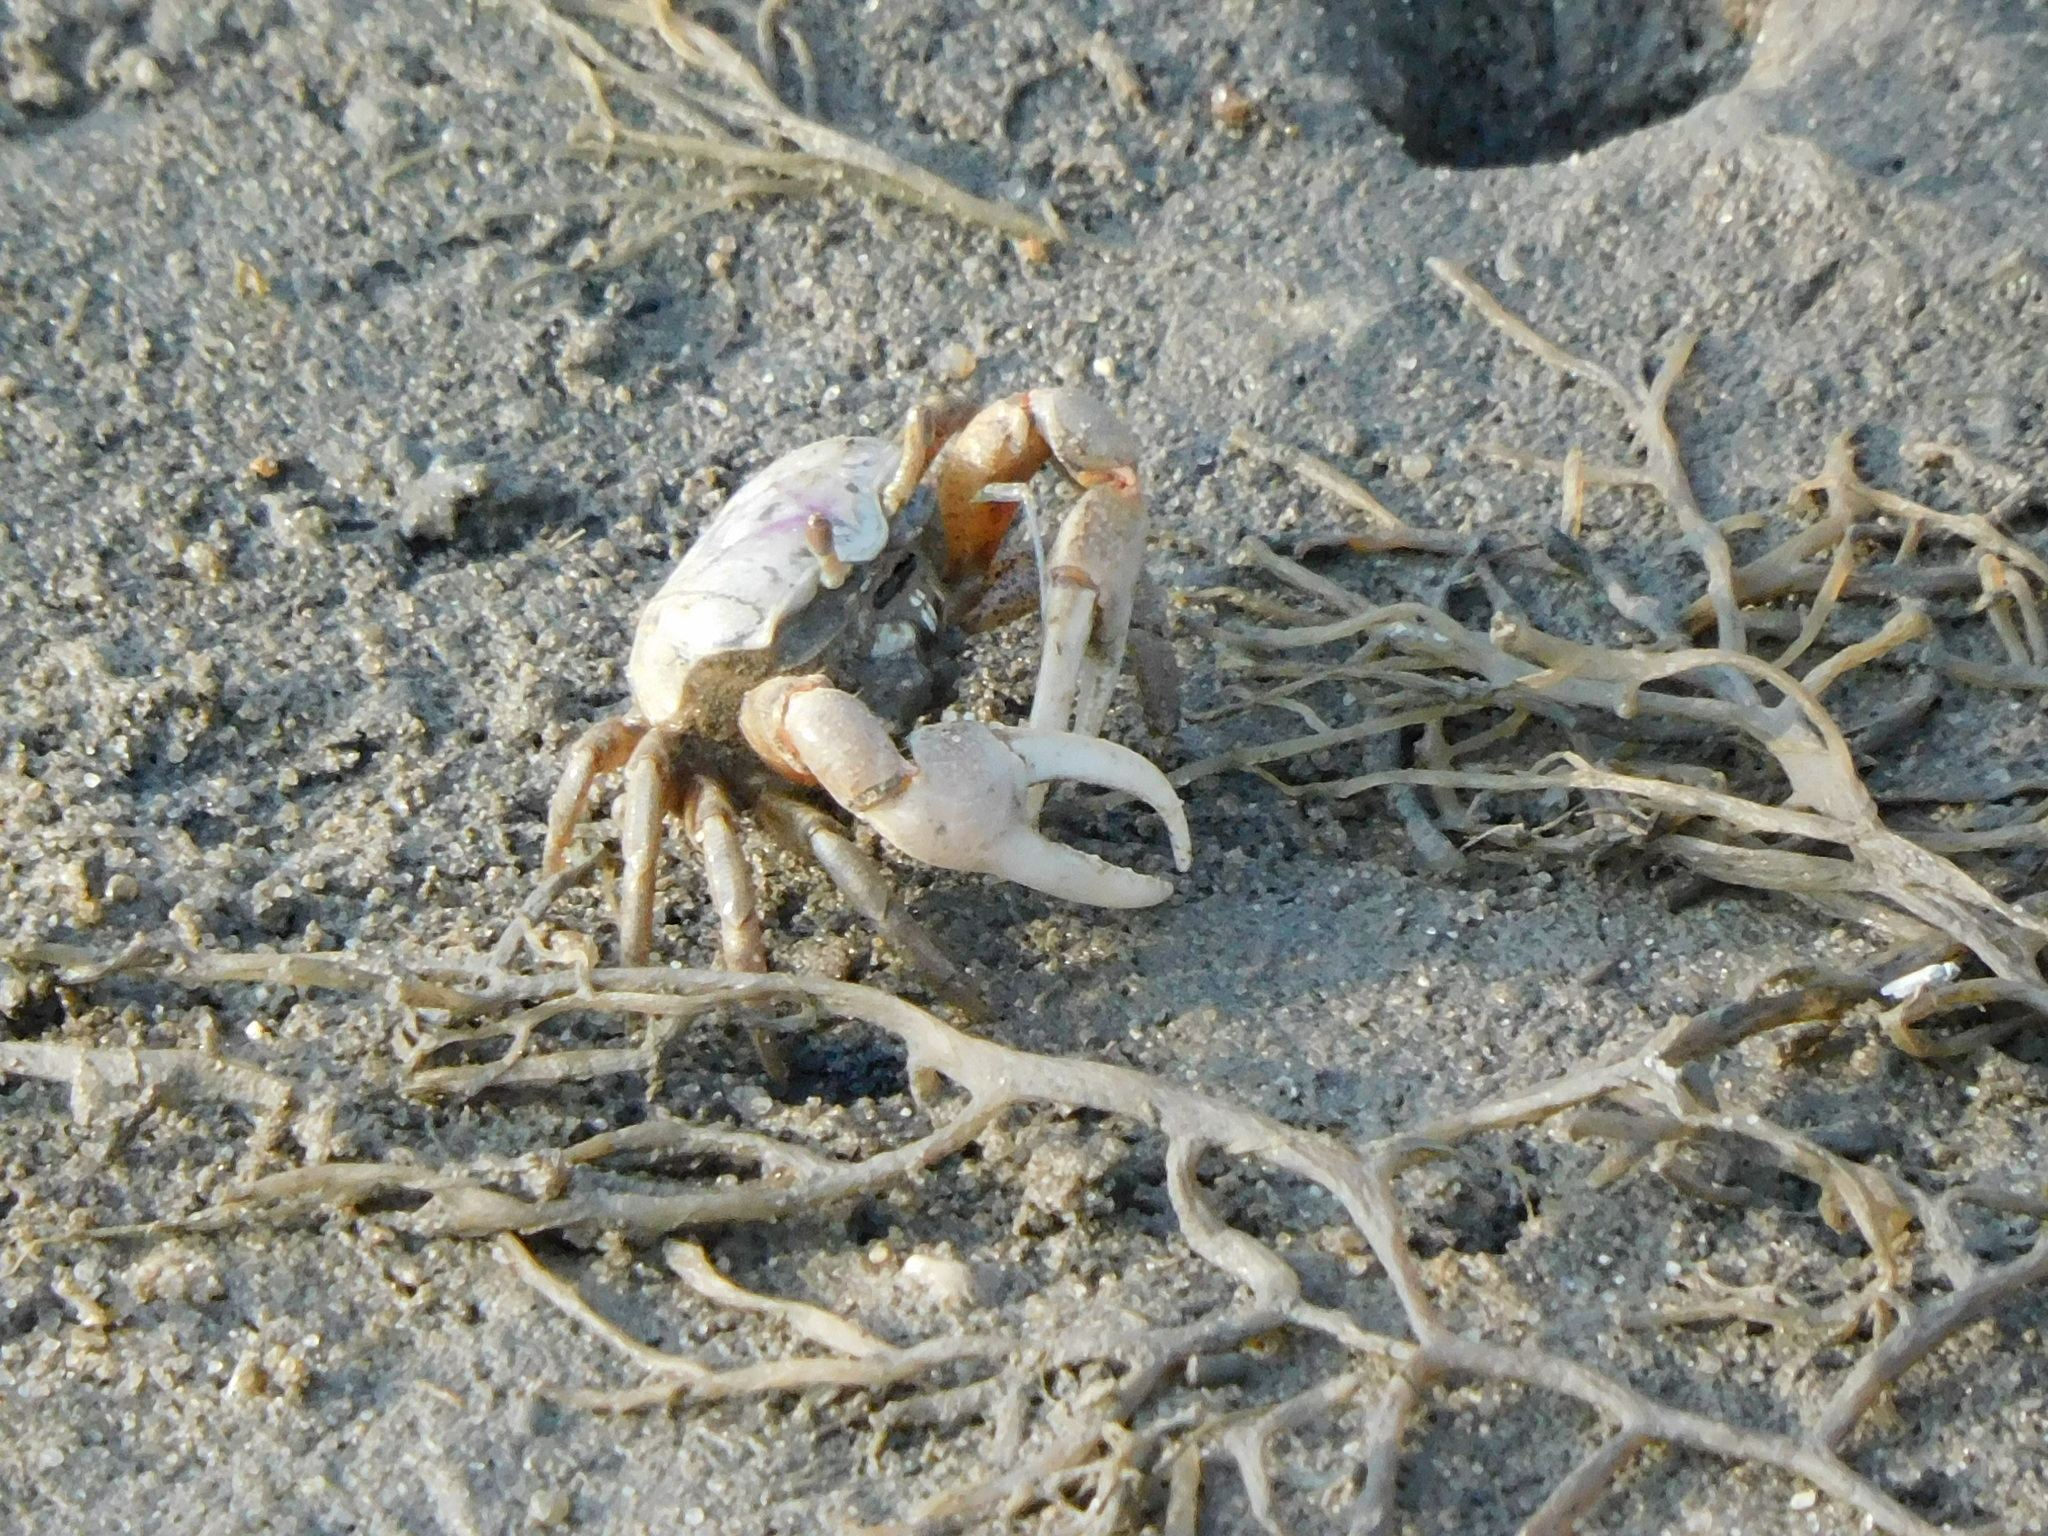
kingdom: Animalia
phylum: Arthropoda
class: Malacostraca
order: Decapoda
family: Ocypodidae
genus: Leptuca
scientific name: Leptuca pugilator
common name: Atlantic sand fiddler crab
